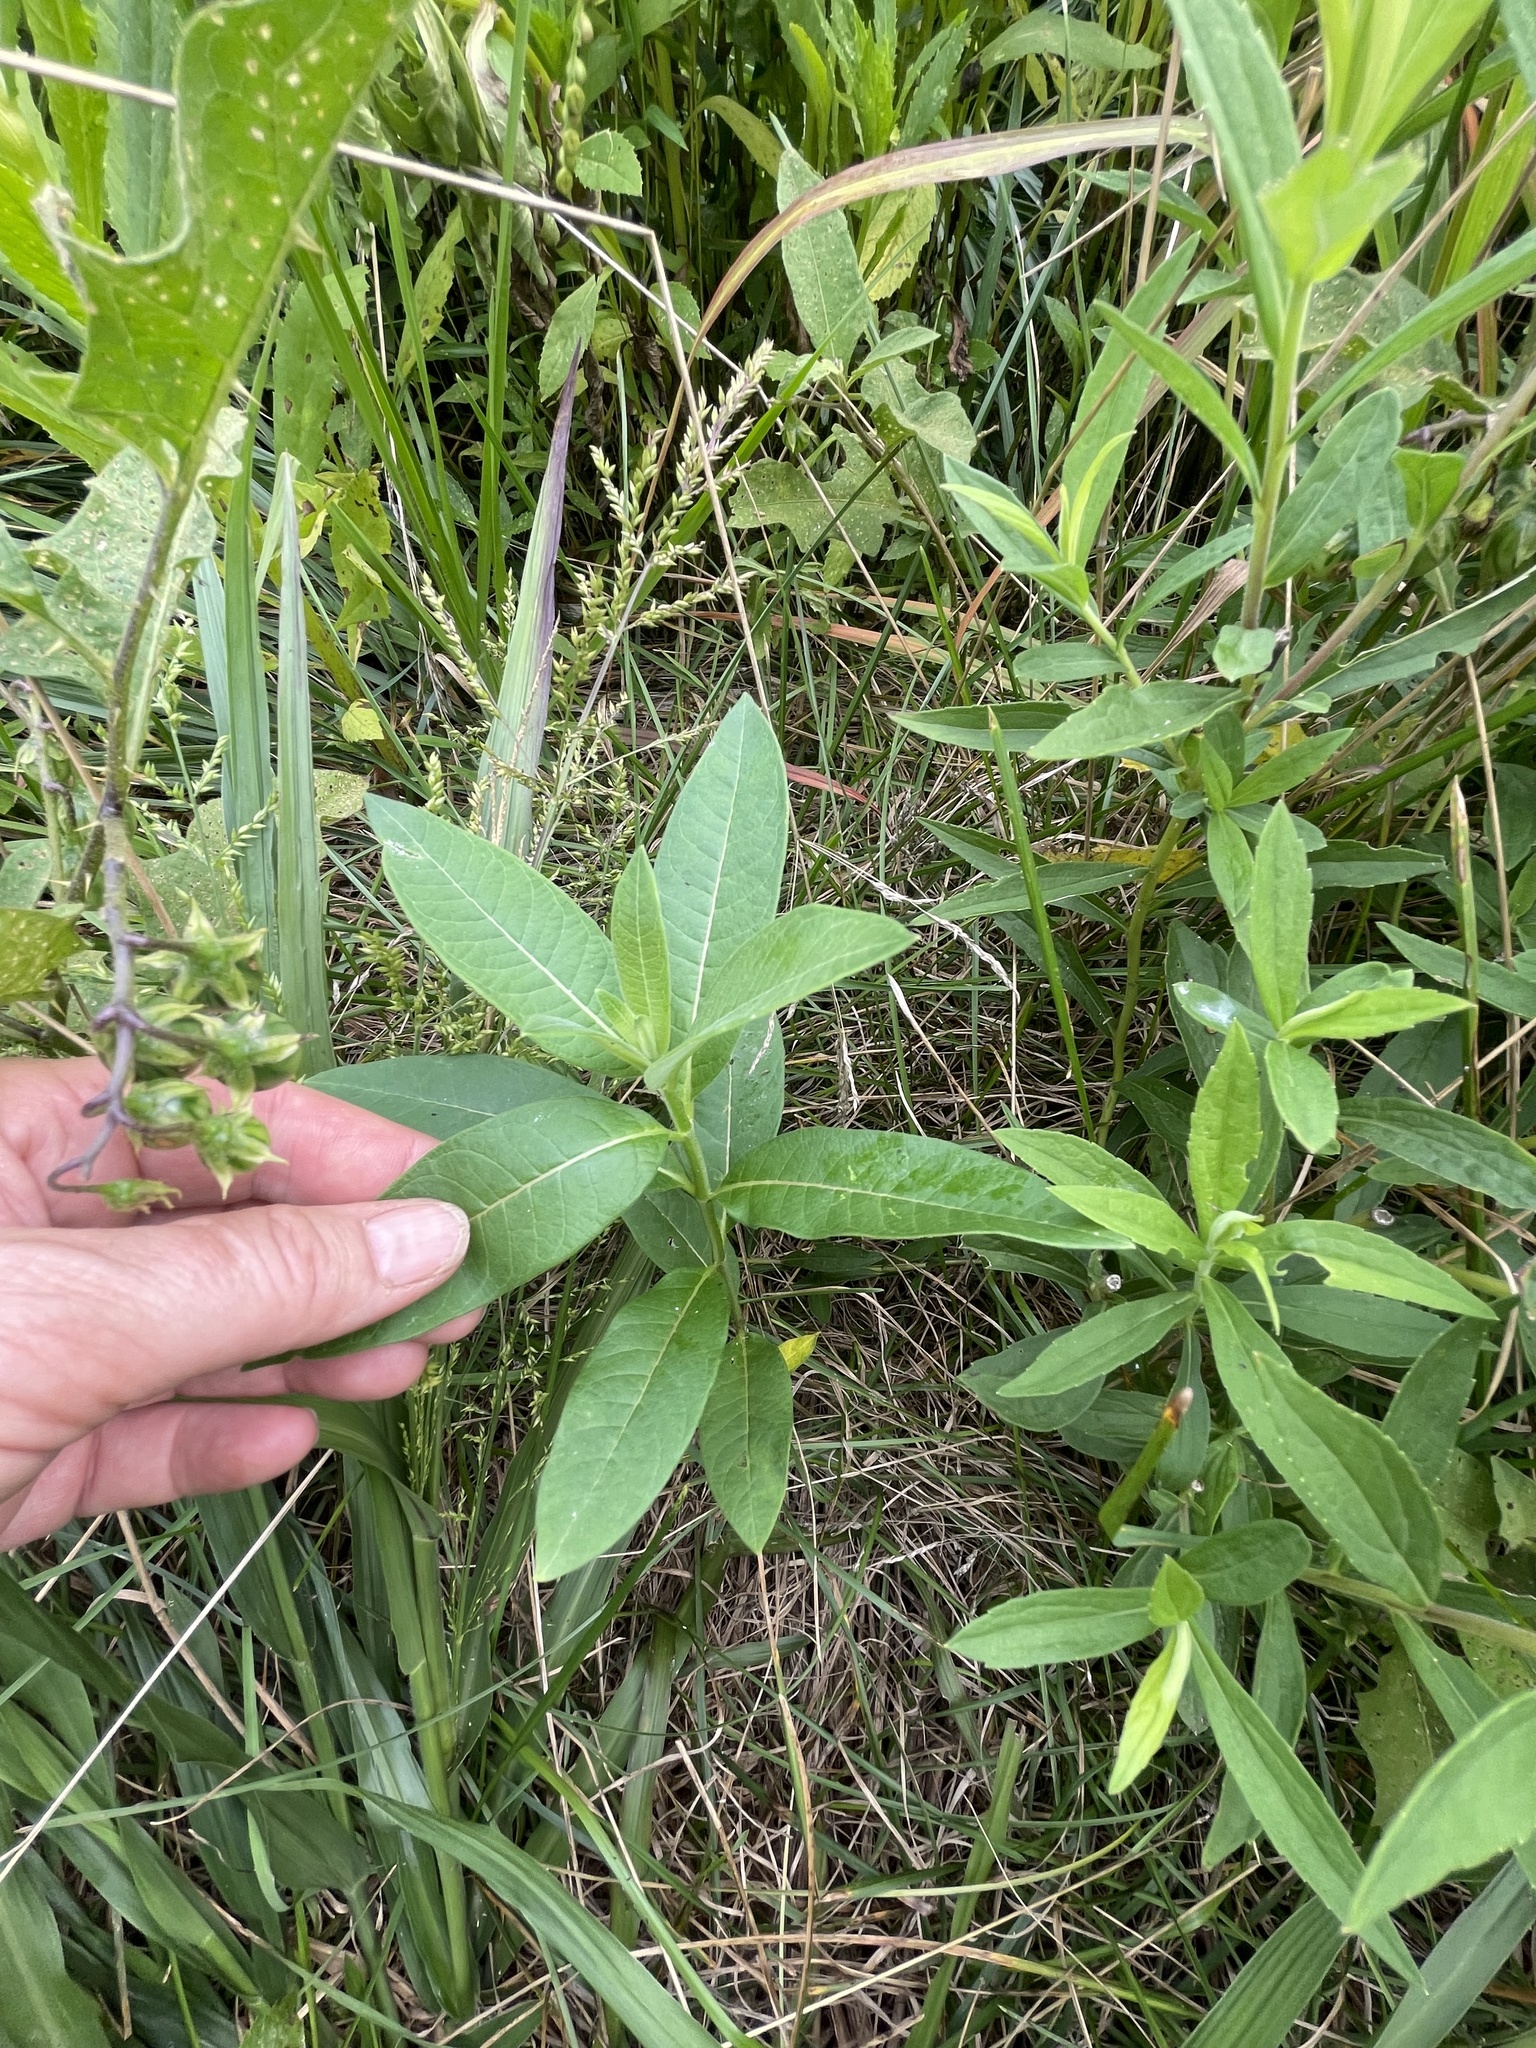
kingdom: Plantae
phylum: Tracheophyta
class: Magnoliopsida
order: Gentianales
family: Apocynaceae
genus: Asclepias
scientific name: Asclepias syriaca
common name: Common milkweed
